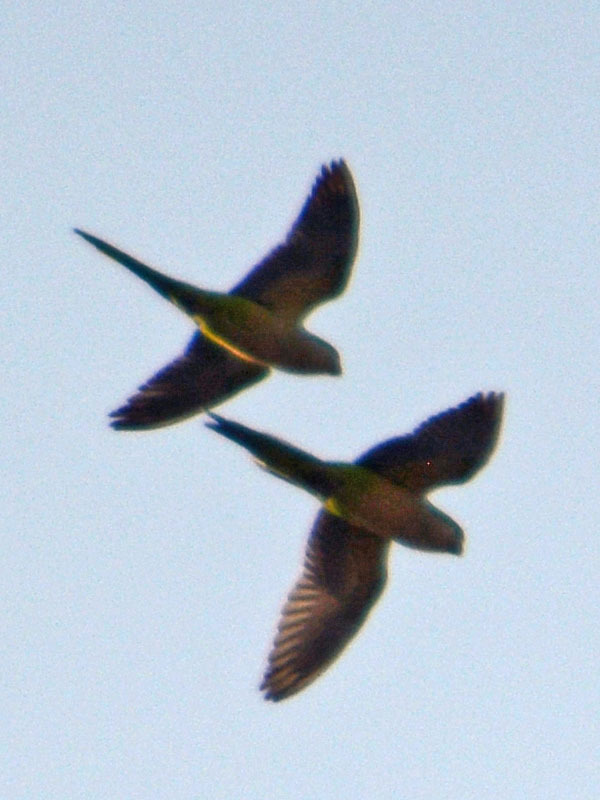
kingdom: Animalia
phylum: Chordata
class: Aves
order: Psittaciformes
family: Psittacidae
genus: Myiopsitta
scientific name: Myiopsitta monachus
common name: Monk parakeet
